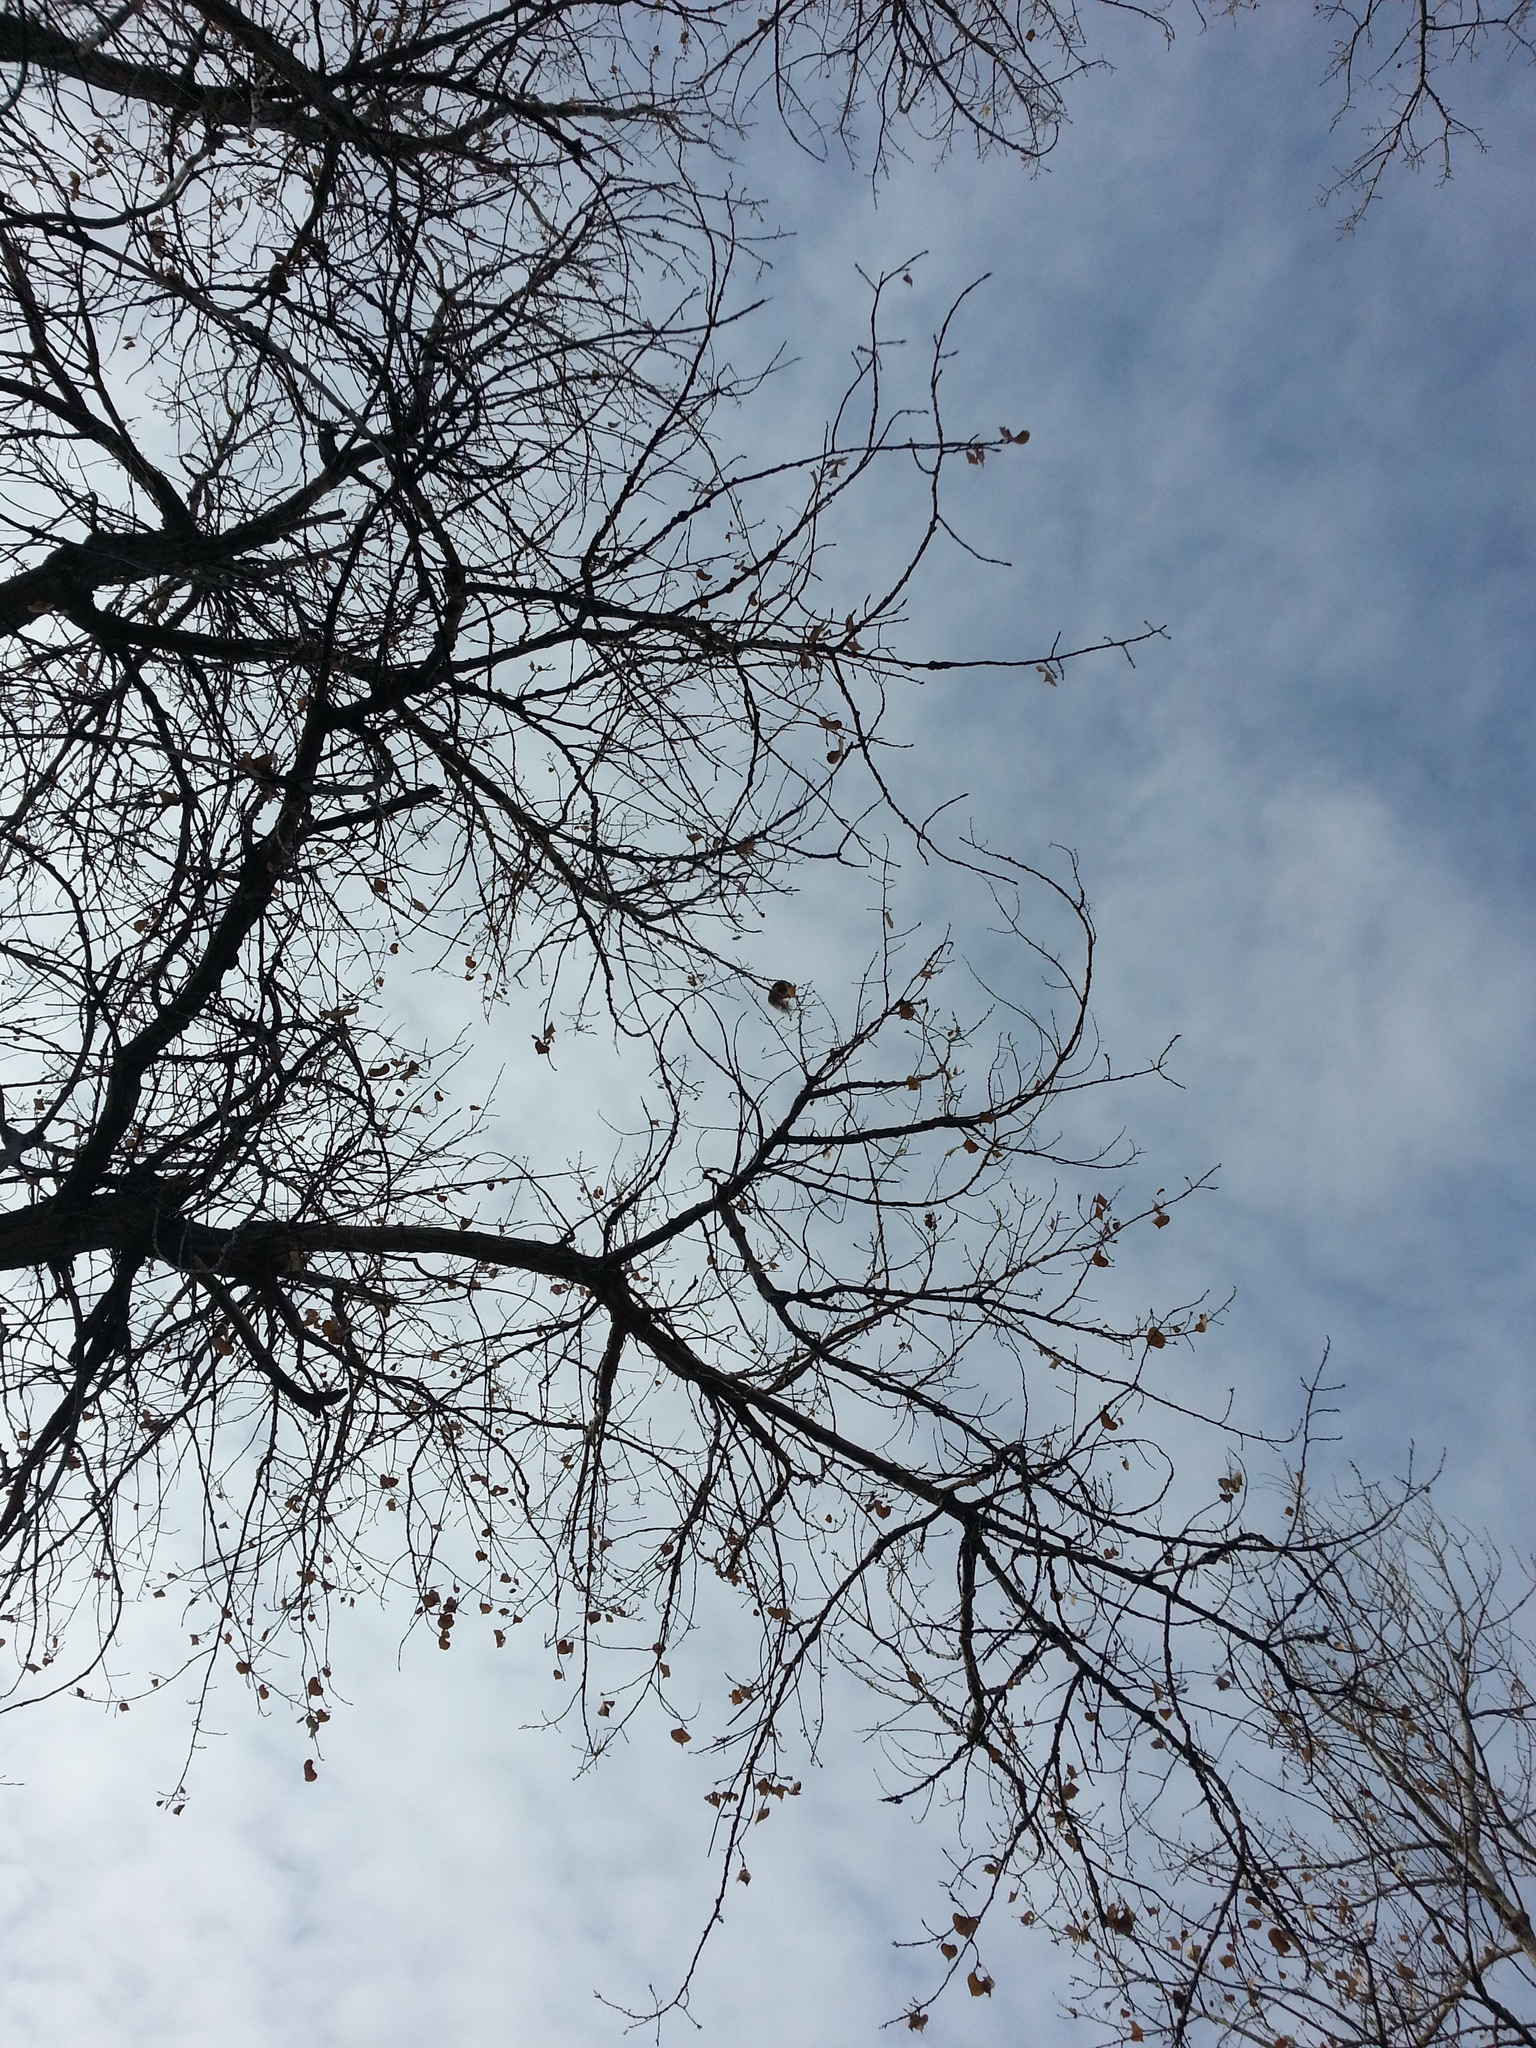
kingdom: Animalia
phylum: Chordata
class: Mammalia
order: Rodentia
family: Sciuridae
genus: Sciurus
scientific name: Sciurus niger
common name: Fox squirrel
